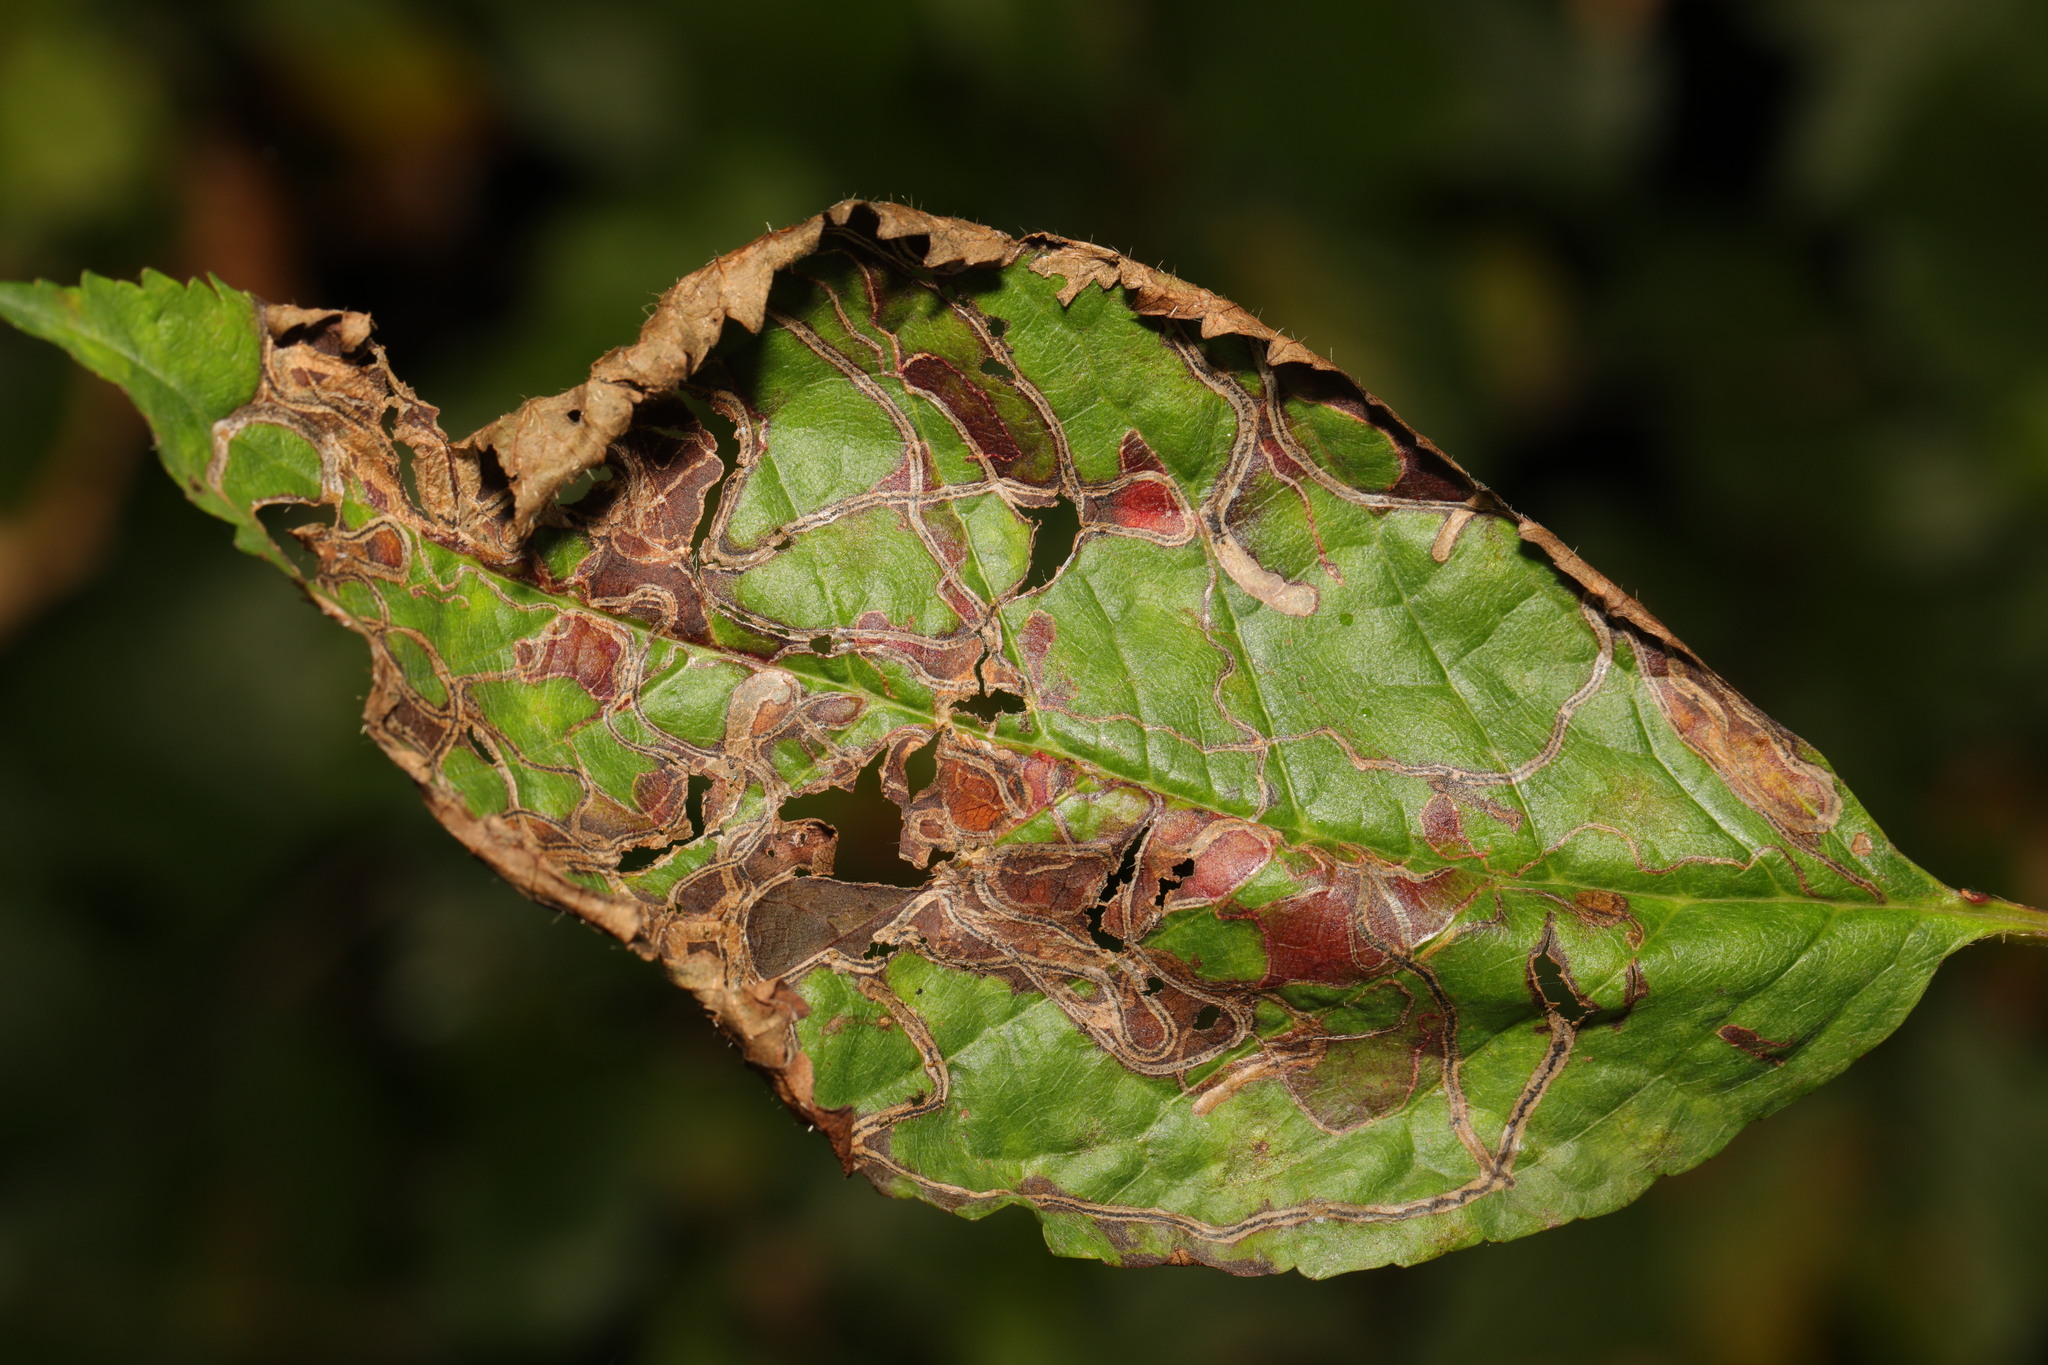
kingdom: Animalia
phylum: Arthropoda
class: Insecta
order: Lepidoptera
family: Lyonetiidae
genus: Lyonetia
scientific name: Lyonetia clerkella
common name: Apple leaf miner
